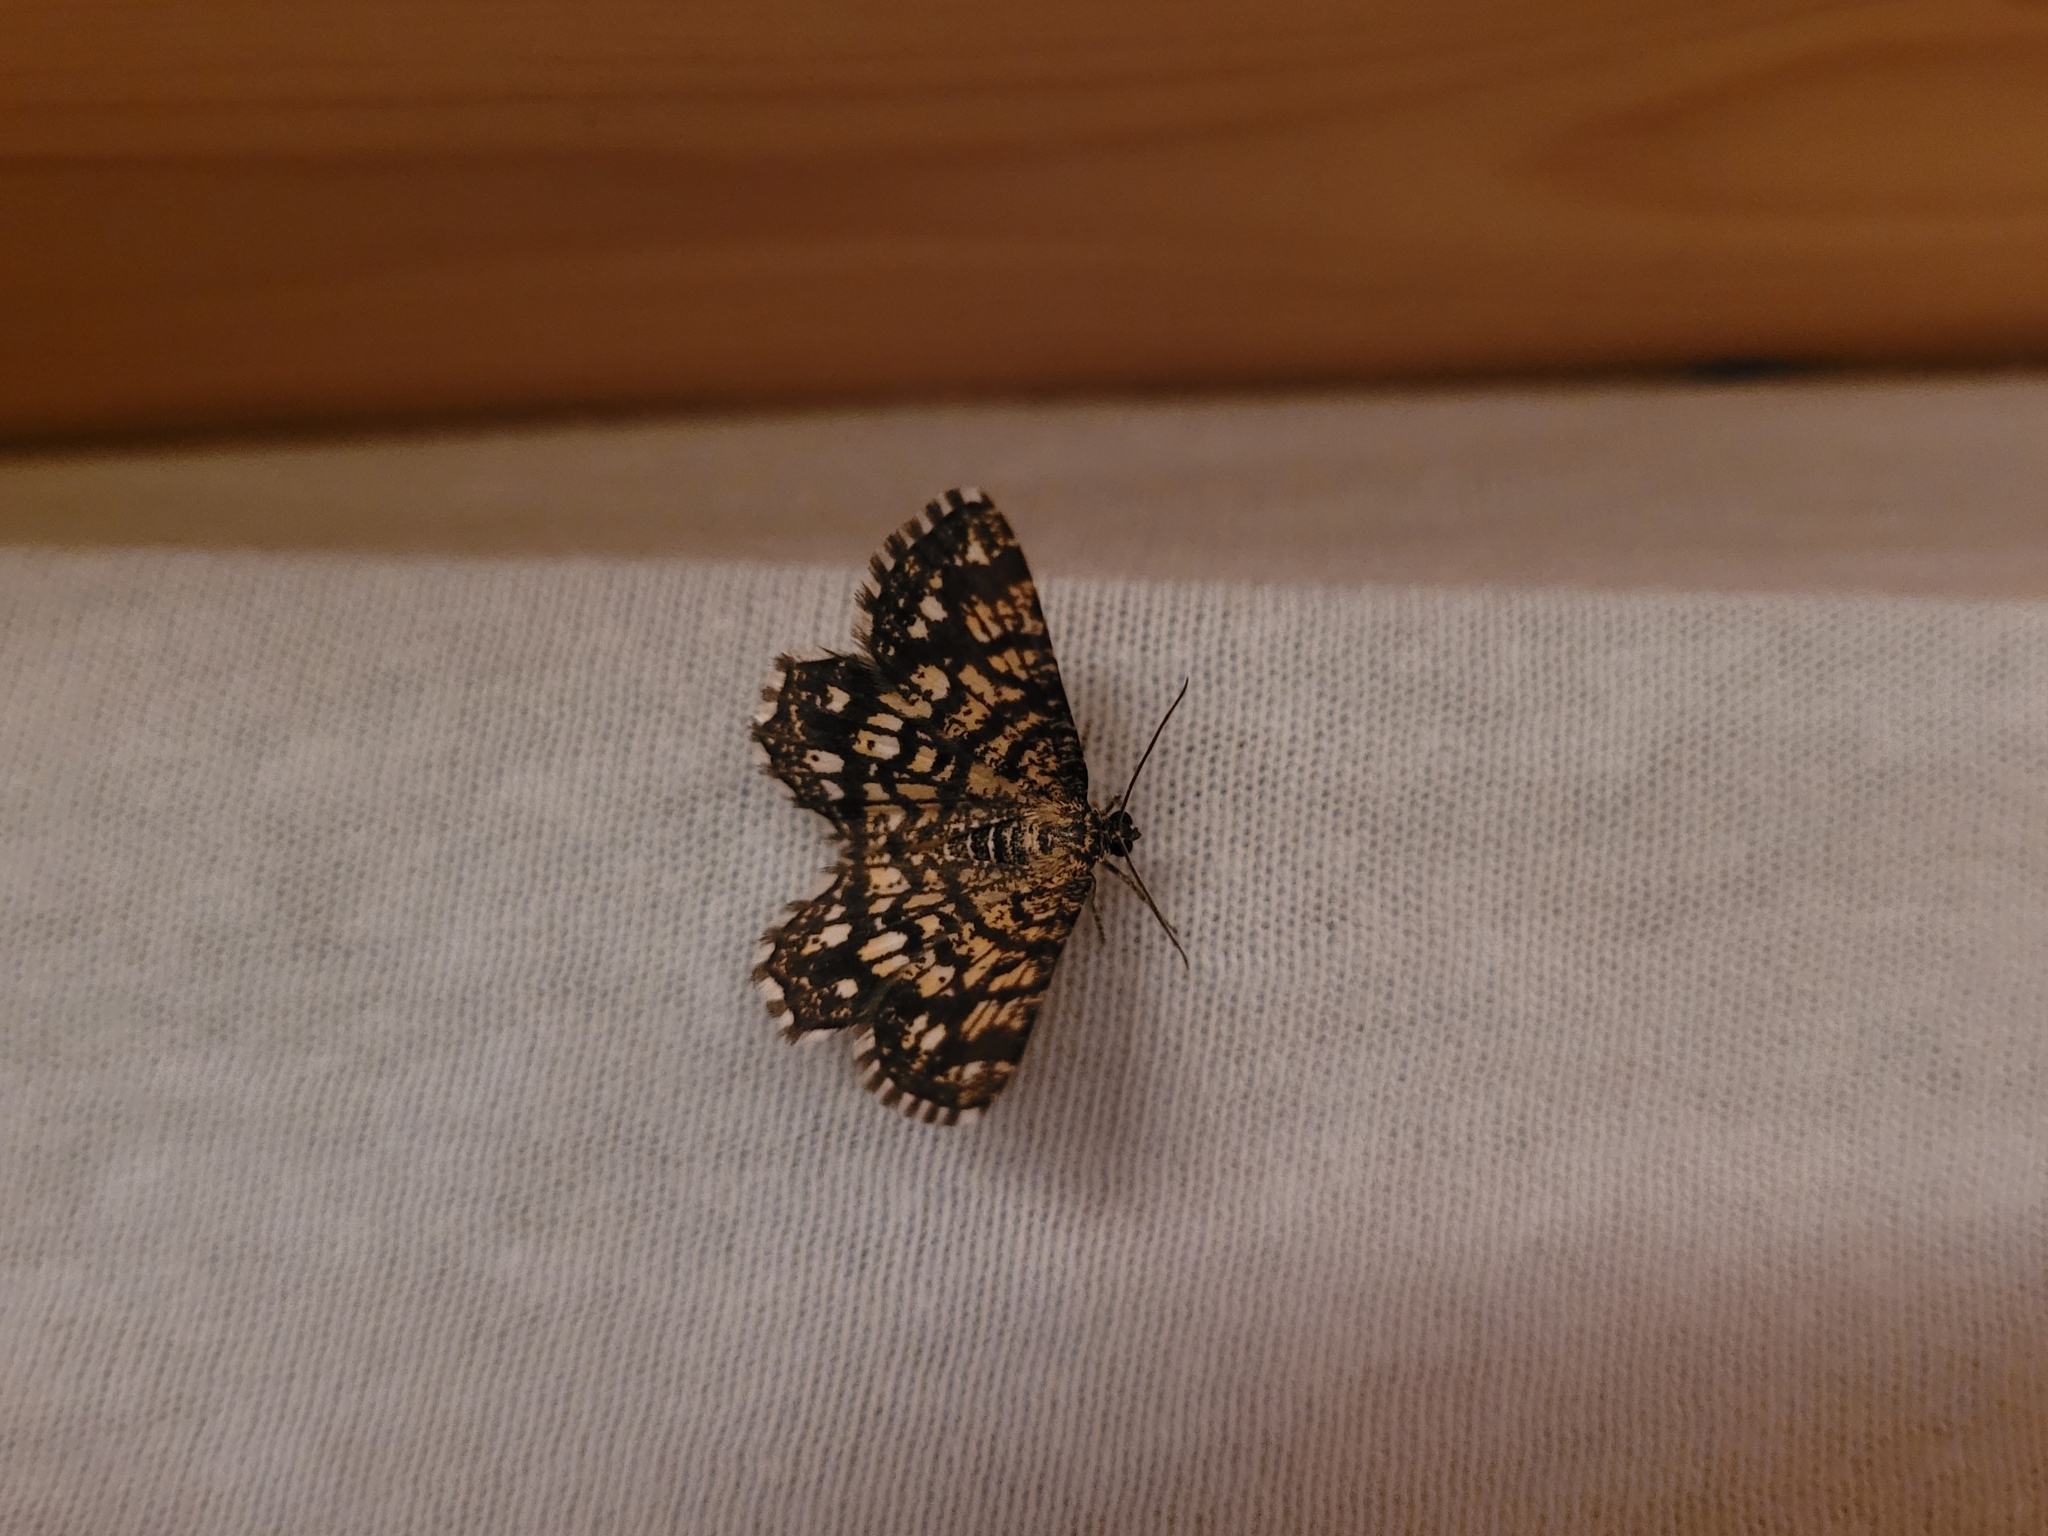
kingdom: Animalia
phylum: Arthropoda
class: Insecta
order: Lepidoptera
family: Geometridae
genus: Chiasmia
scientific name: Chiasmia clathrata
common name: Latticed heath
